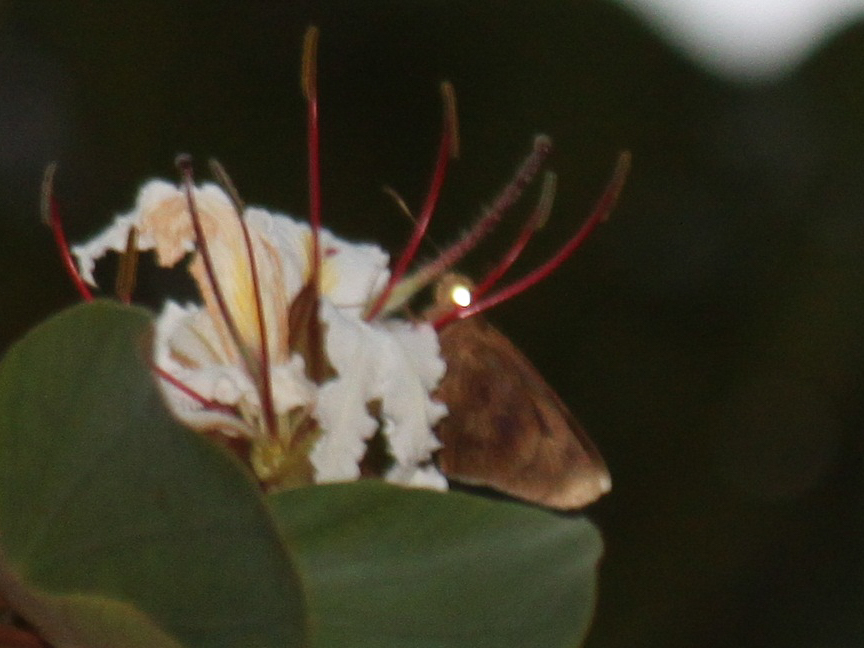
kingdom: Animalia
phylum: Arthropoda
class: Insecta
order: Lepidoptera
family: Hesperiidae
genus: Erionota
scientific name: Erionota acroleucus
